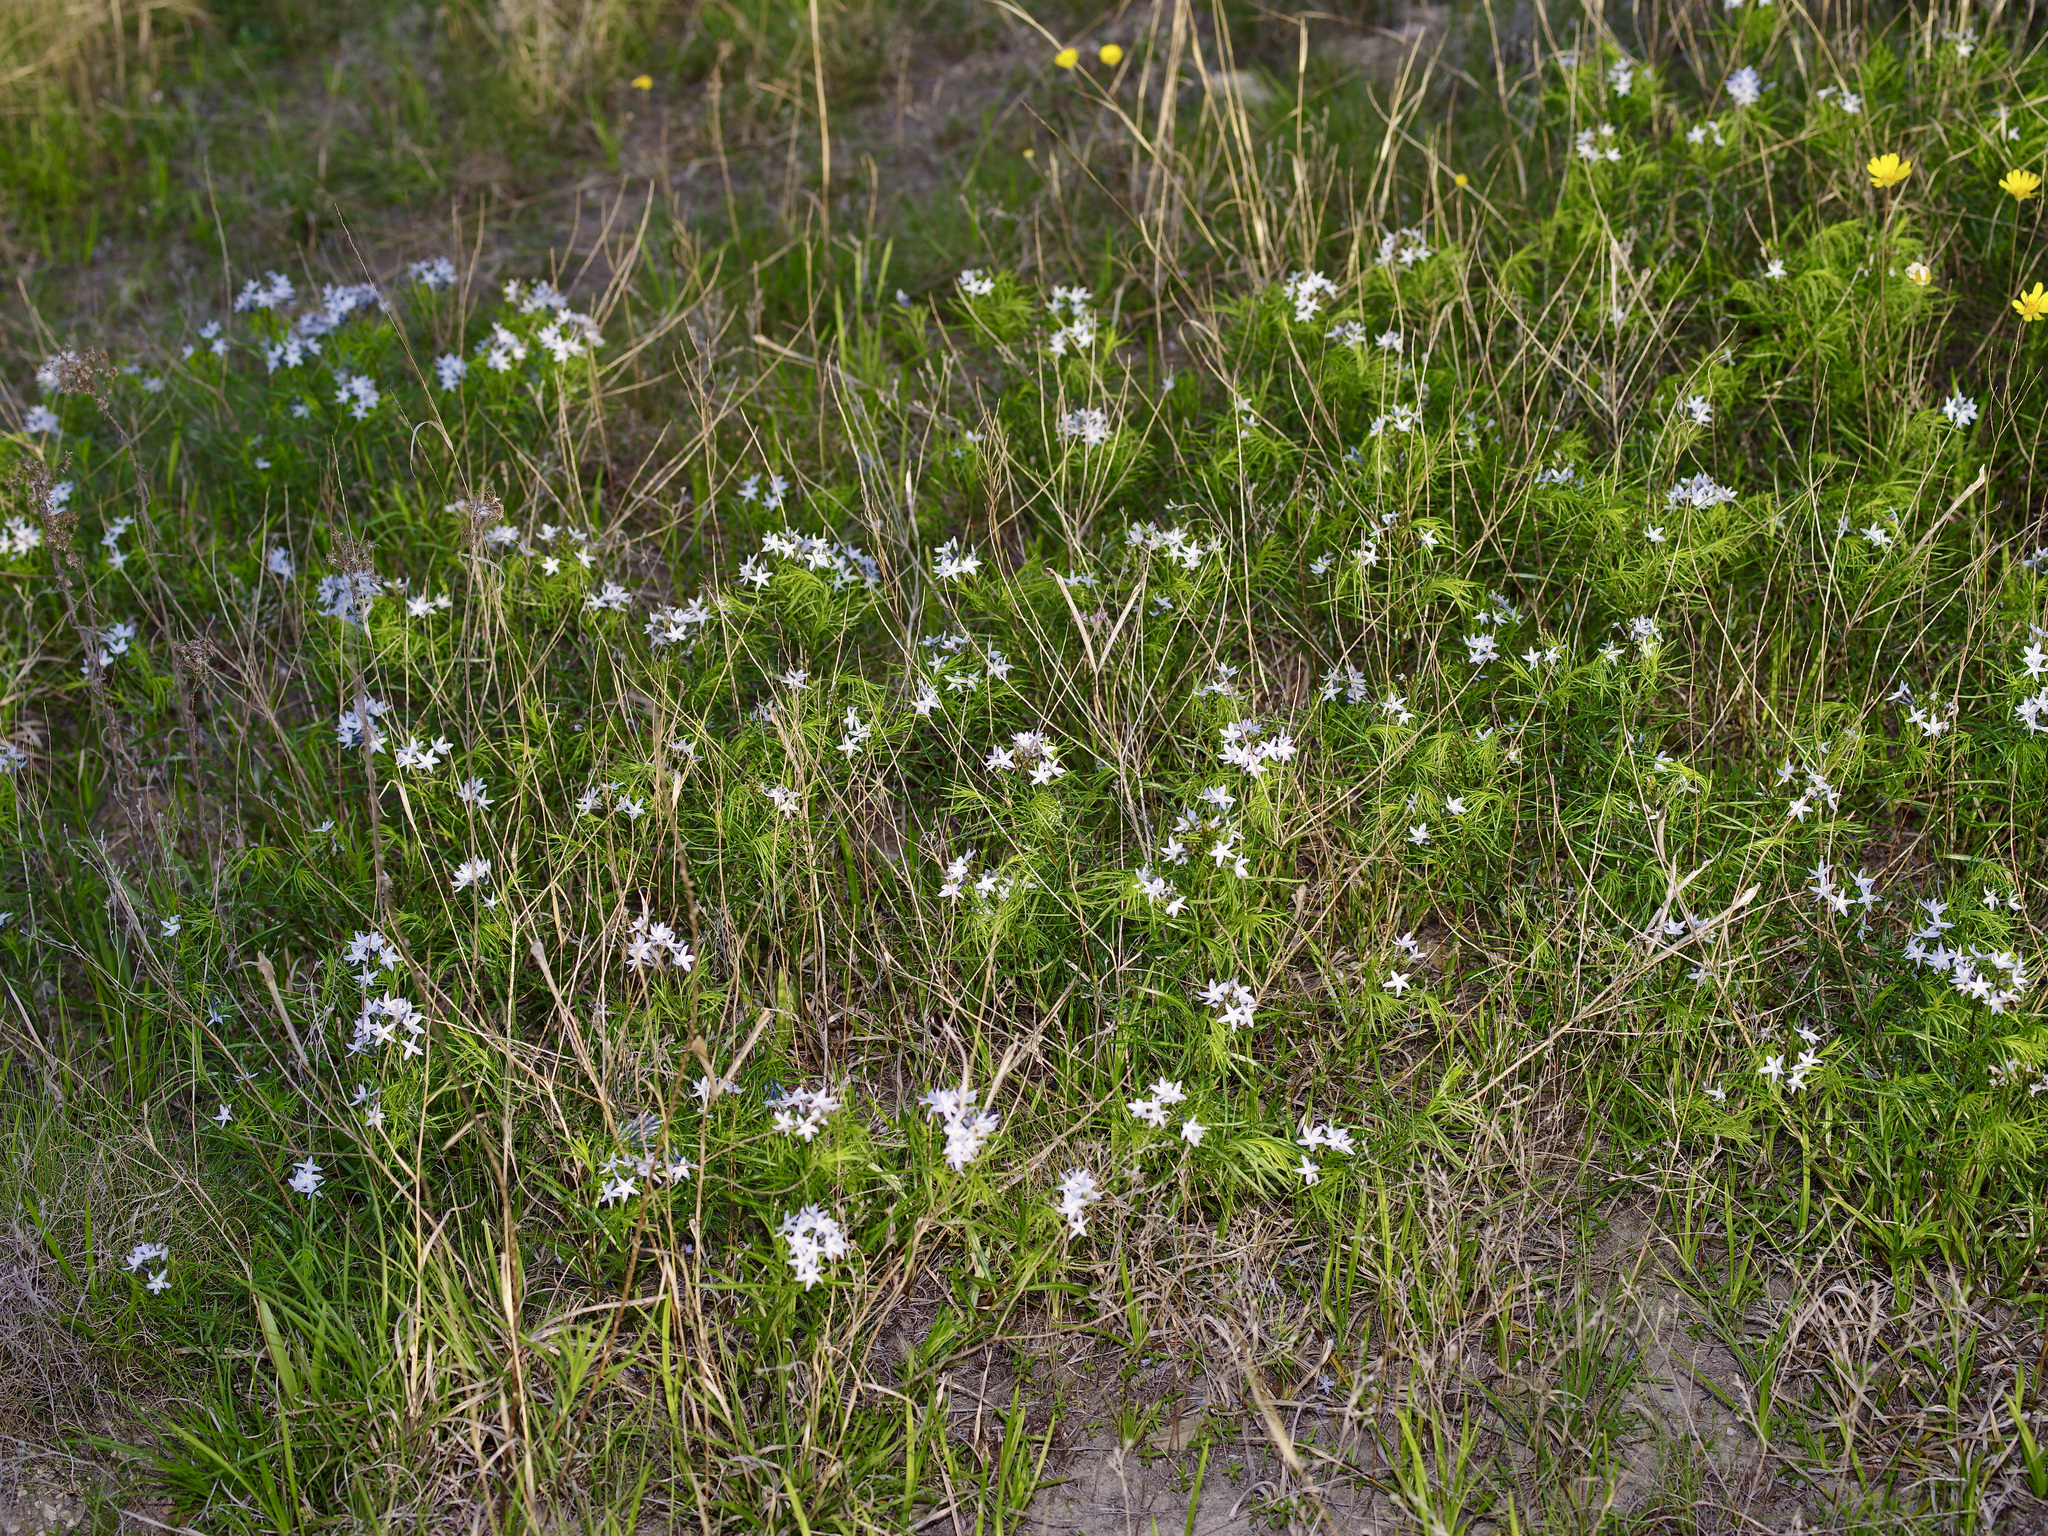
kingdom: Plantae
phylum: Tracheophyta
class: Magnoliopsida
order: Gentianales
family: Apocynaceae
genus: Amsonia
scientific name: Amsonia ciliata
